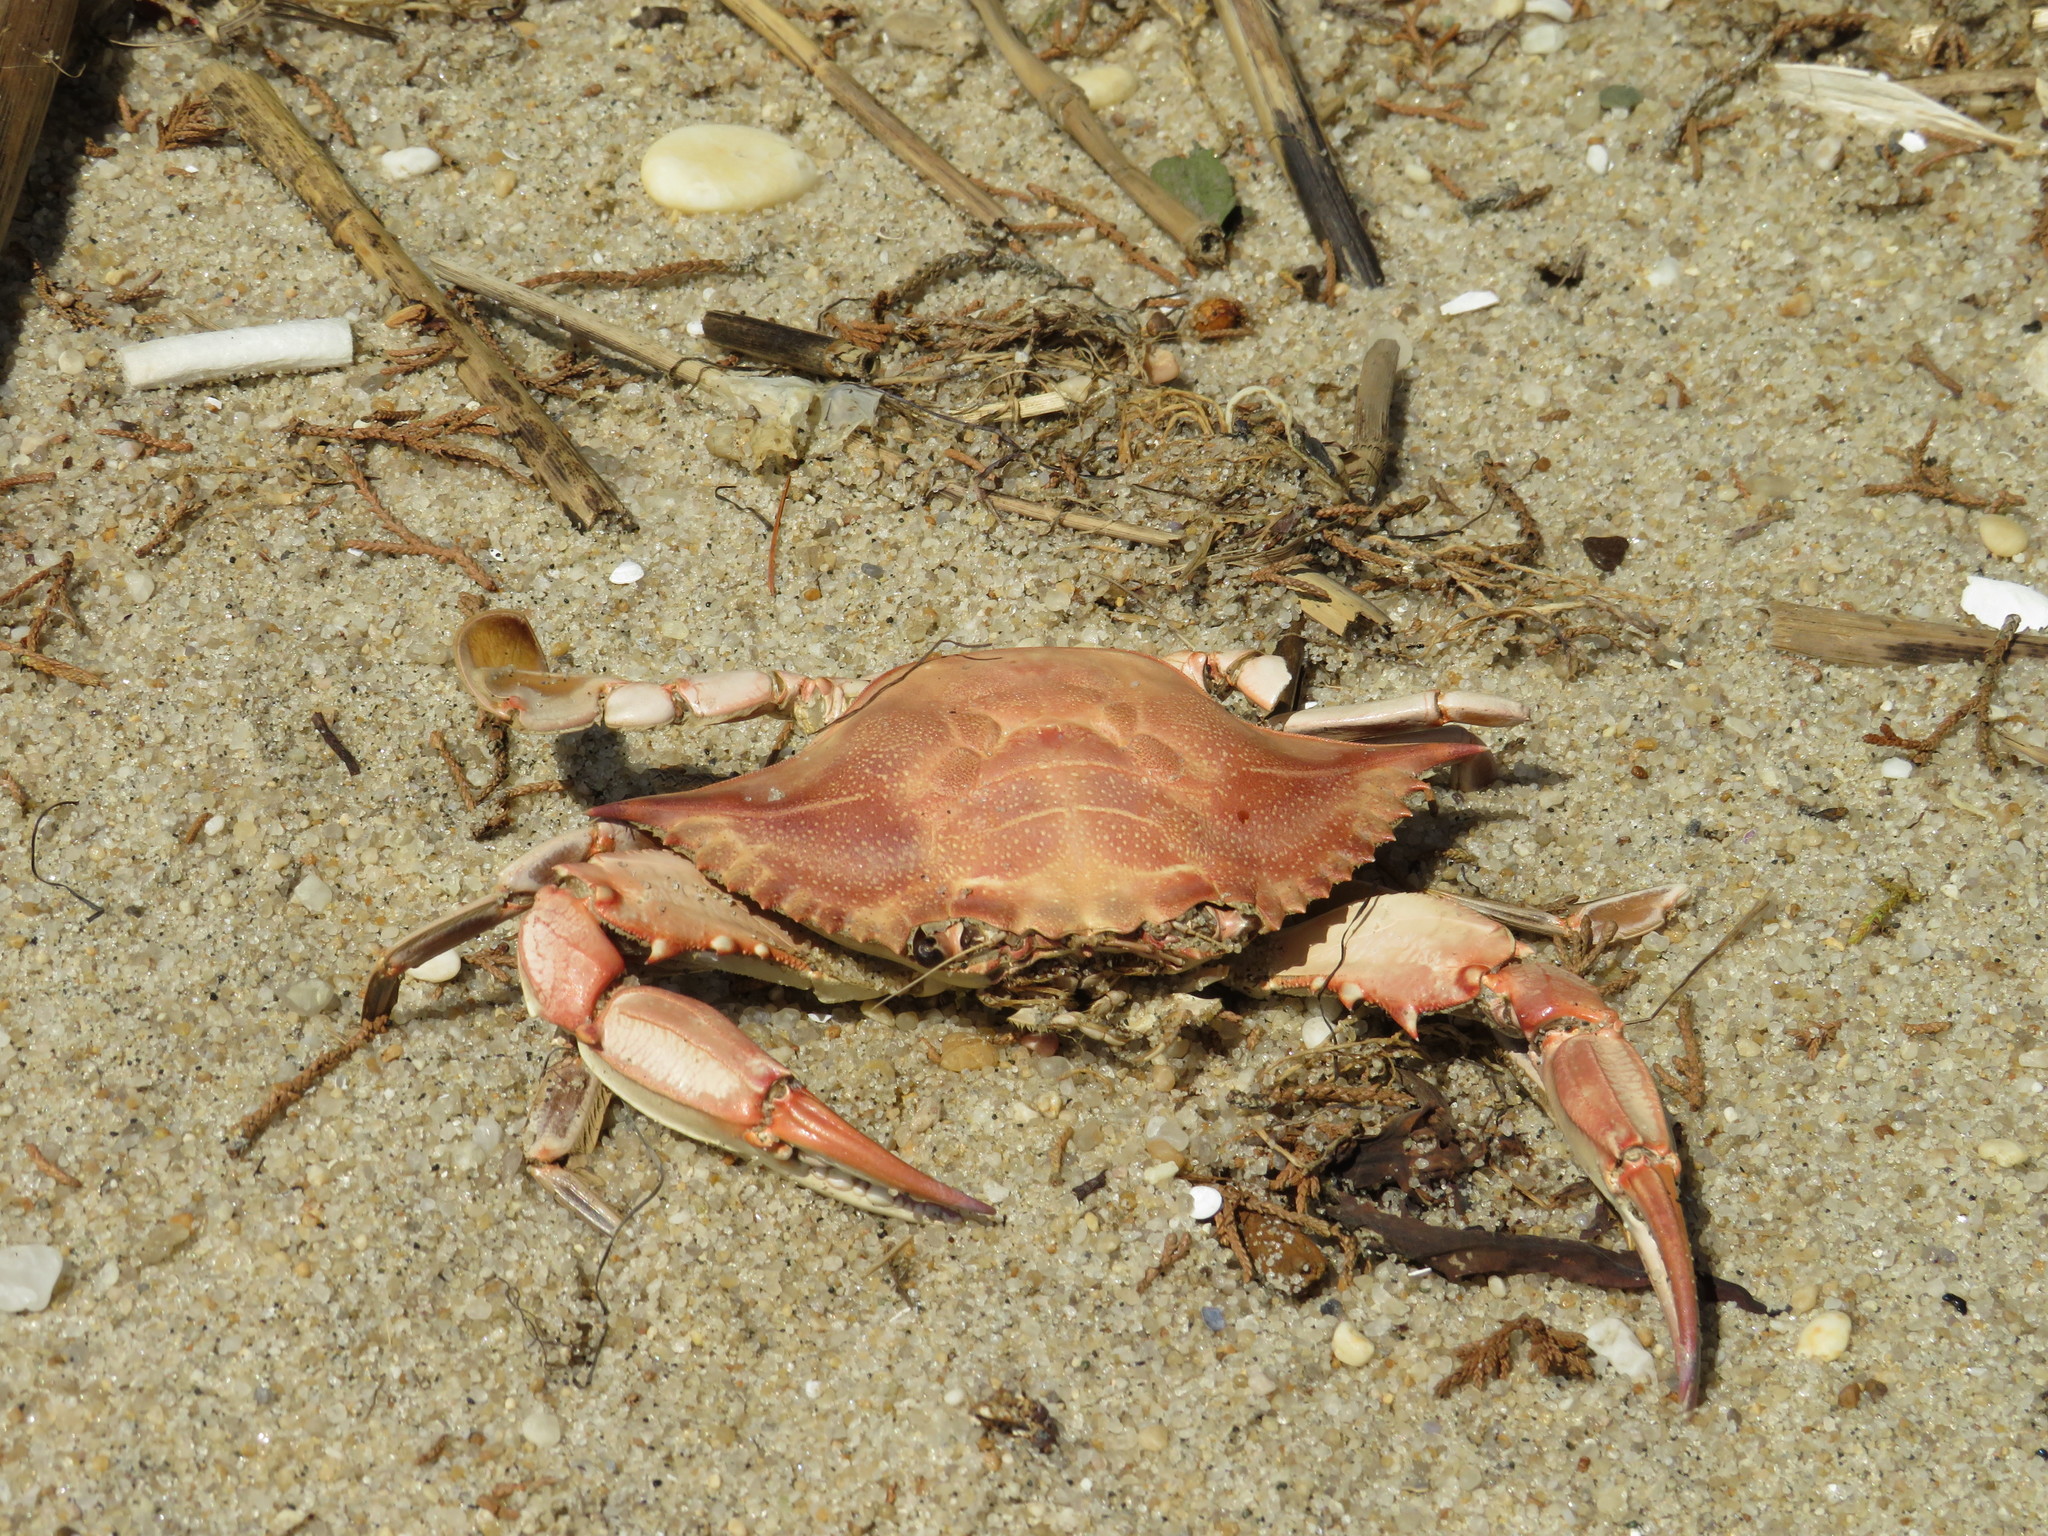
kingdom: Animalia
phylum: Arthropoda
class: Malacostraca
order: Decapoda
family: Portunidae
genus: Callinectes
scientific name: Callinectes sapidus
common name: Blue crab
